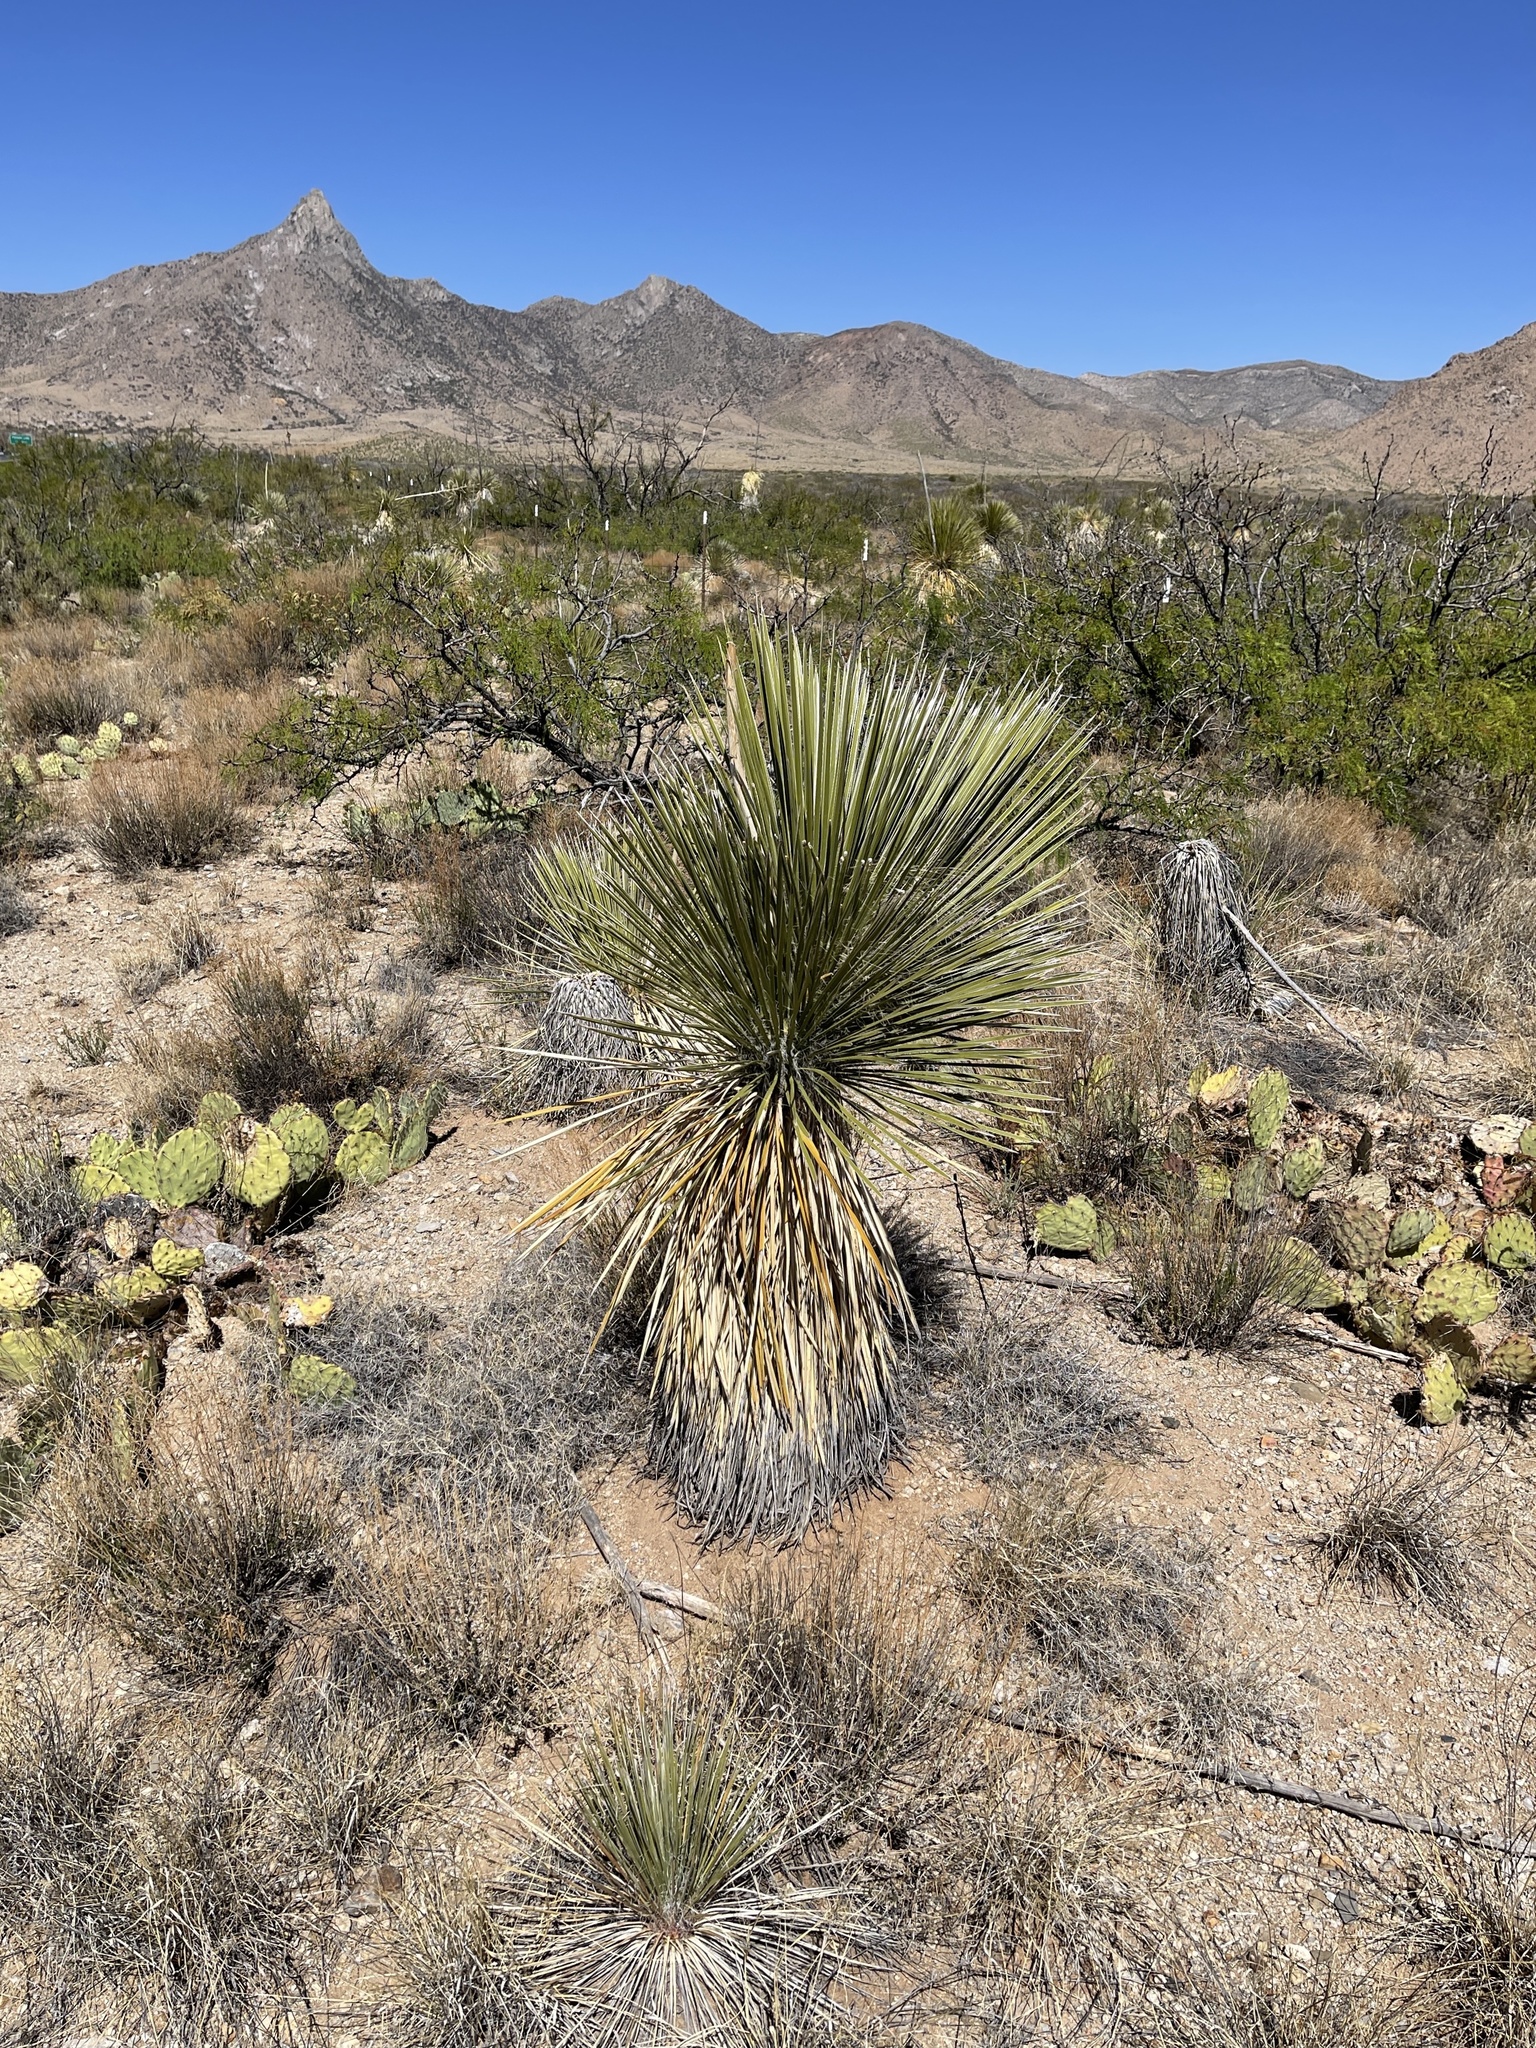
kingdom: Plantae
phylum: Tracheophyta
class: Liliopsida
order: Asparagales
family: Asparagaceae
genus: Yucca
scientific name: Yucca elata
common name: Palmella
